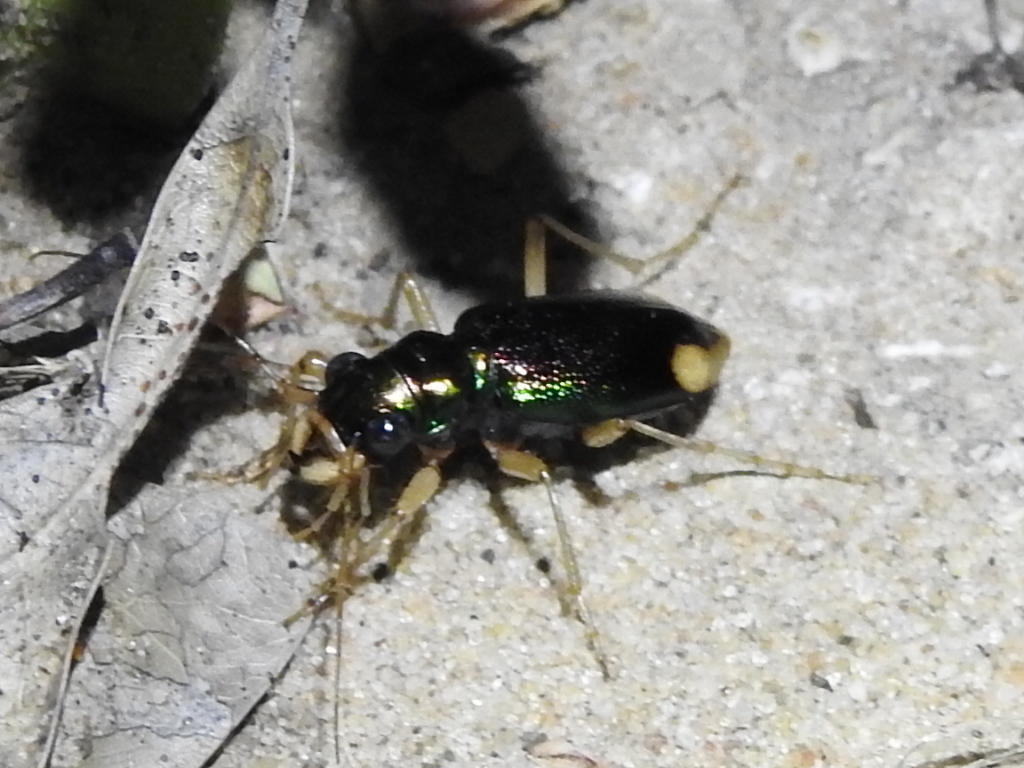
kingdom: Animalia
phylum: Arthropoda
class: Insecta
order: Coleoptera
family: Carabidae
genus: Tetracha
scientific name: Tetracha carolina
